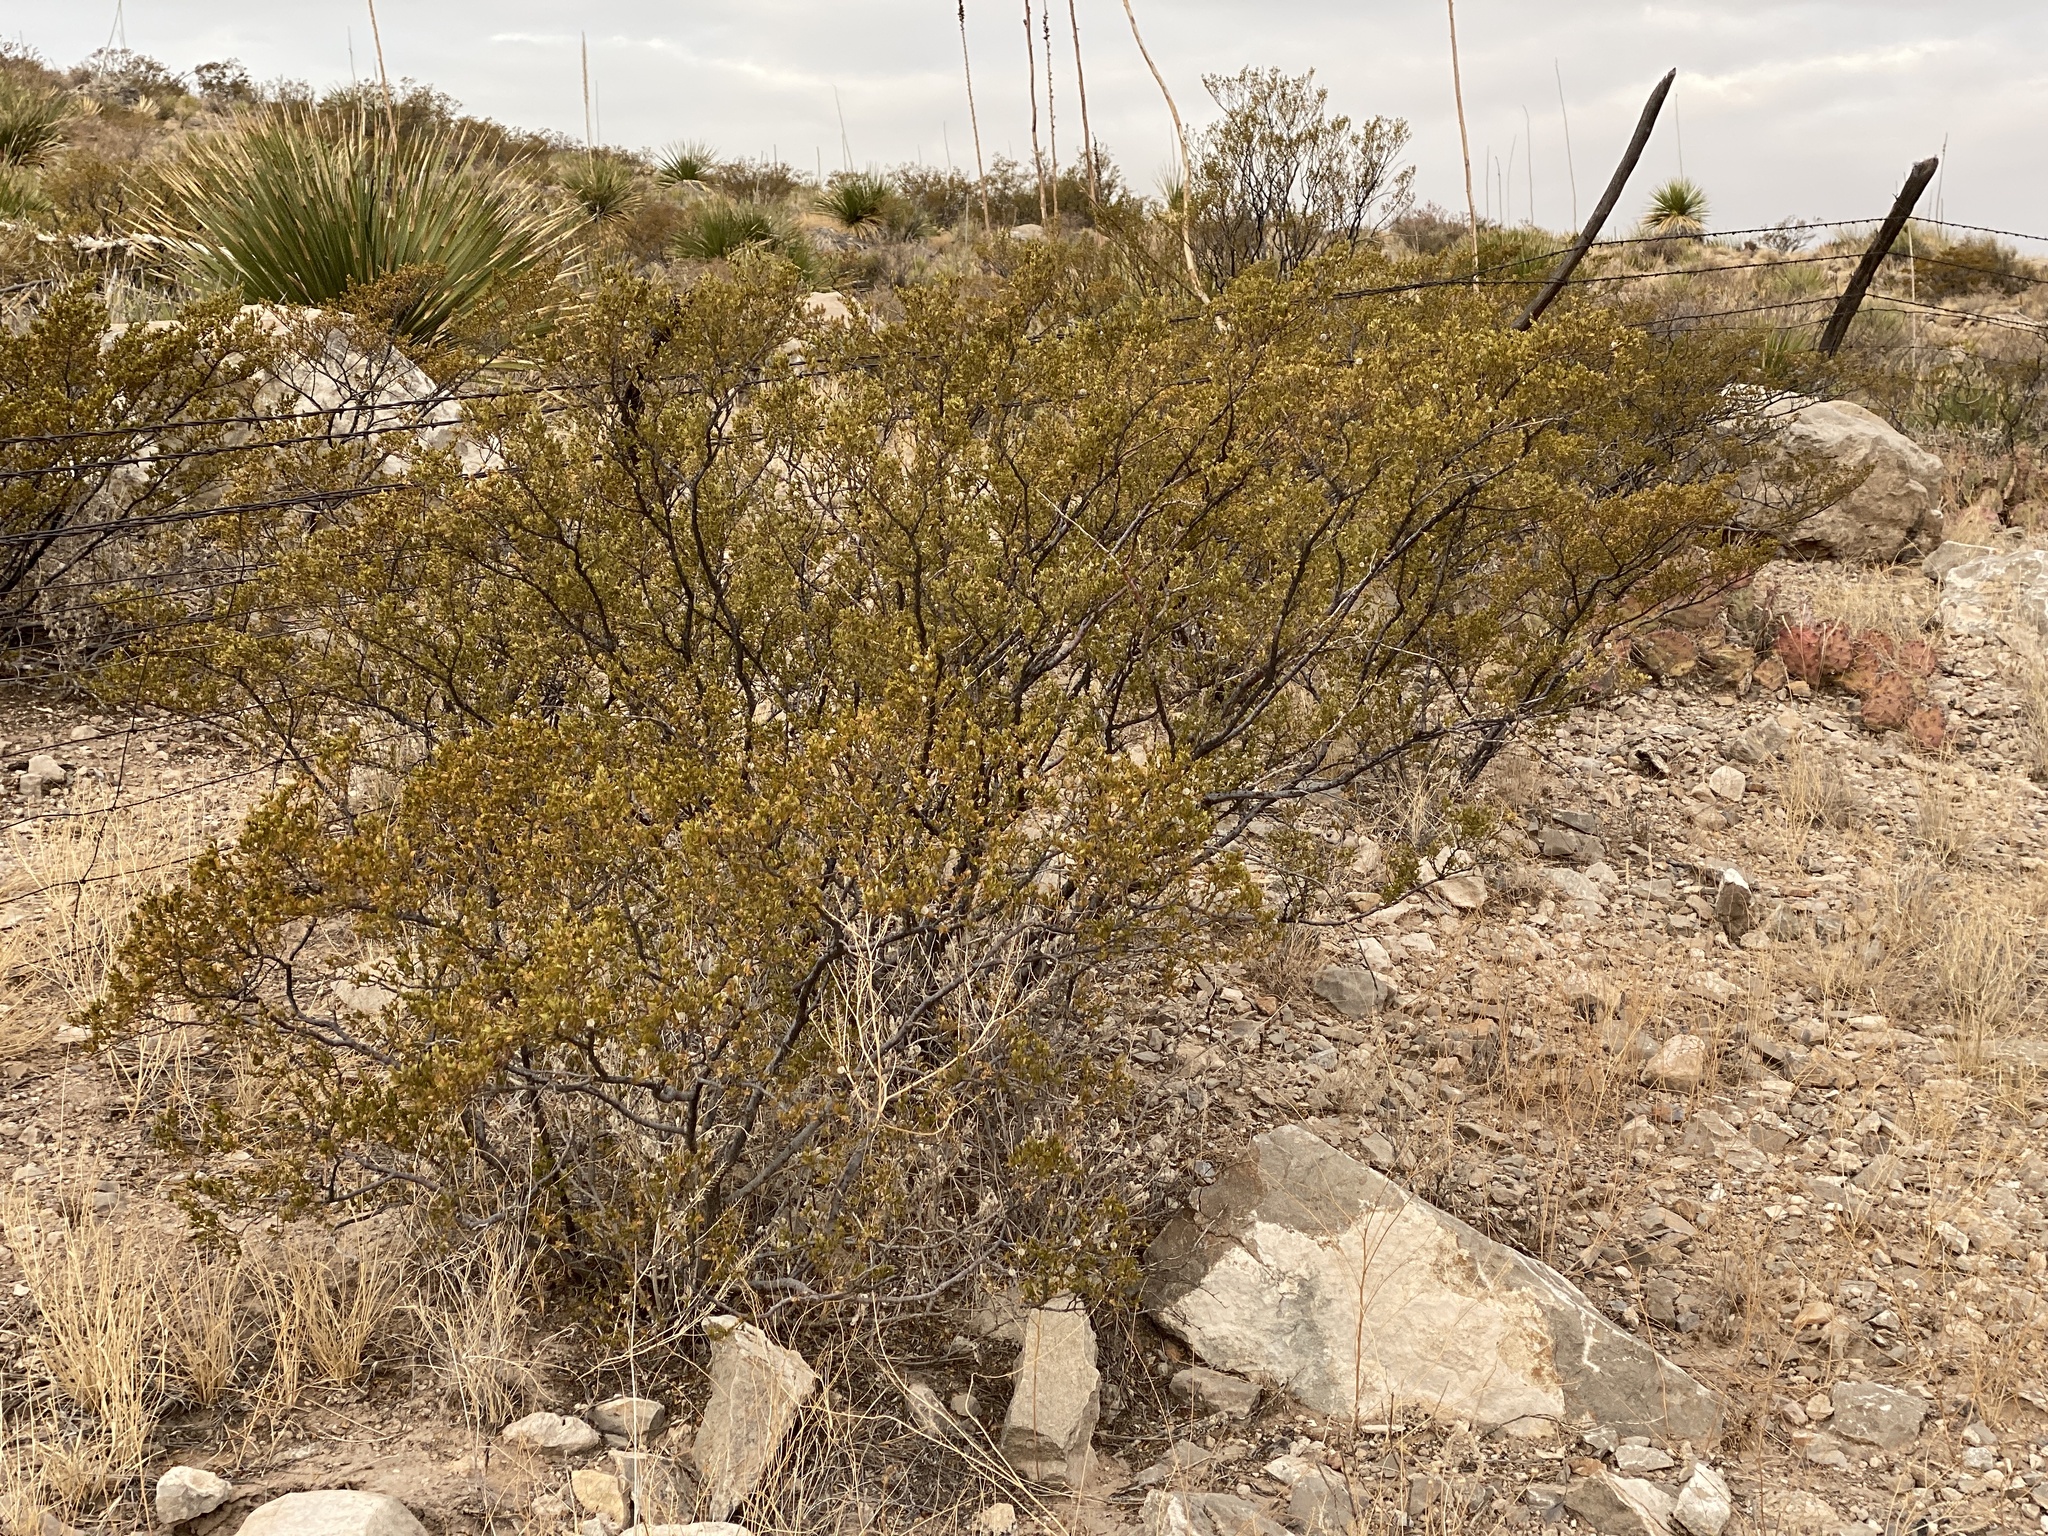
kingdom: Plantae
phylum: Tracheophyta
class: Magnoliopsida
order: Zygophyllales
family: Zygophyllaceae
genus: Larrea
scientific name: Larrea tridentata
